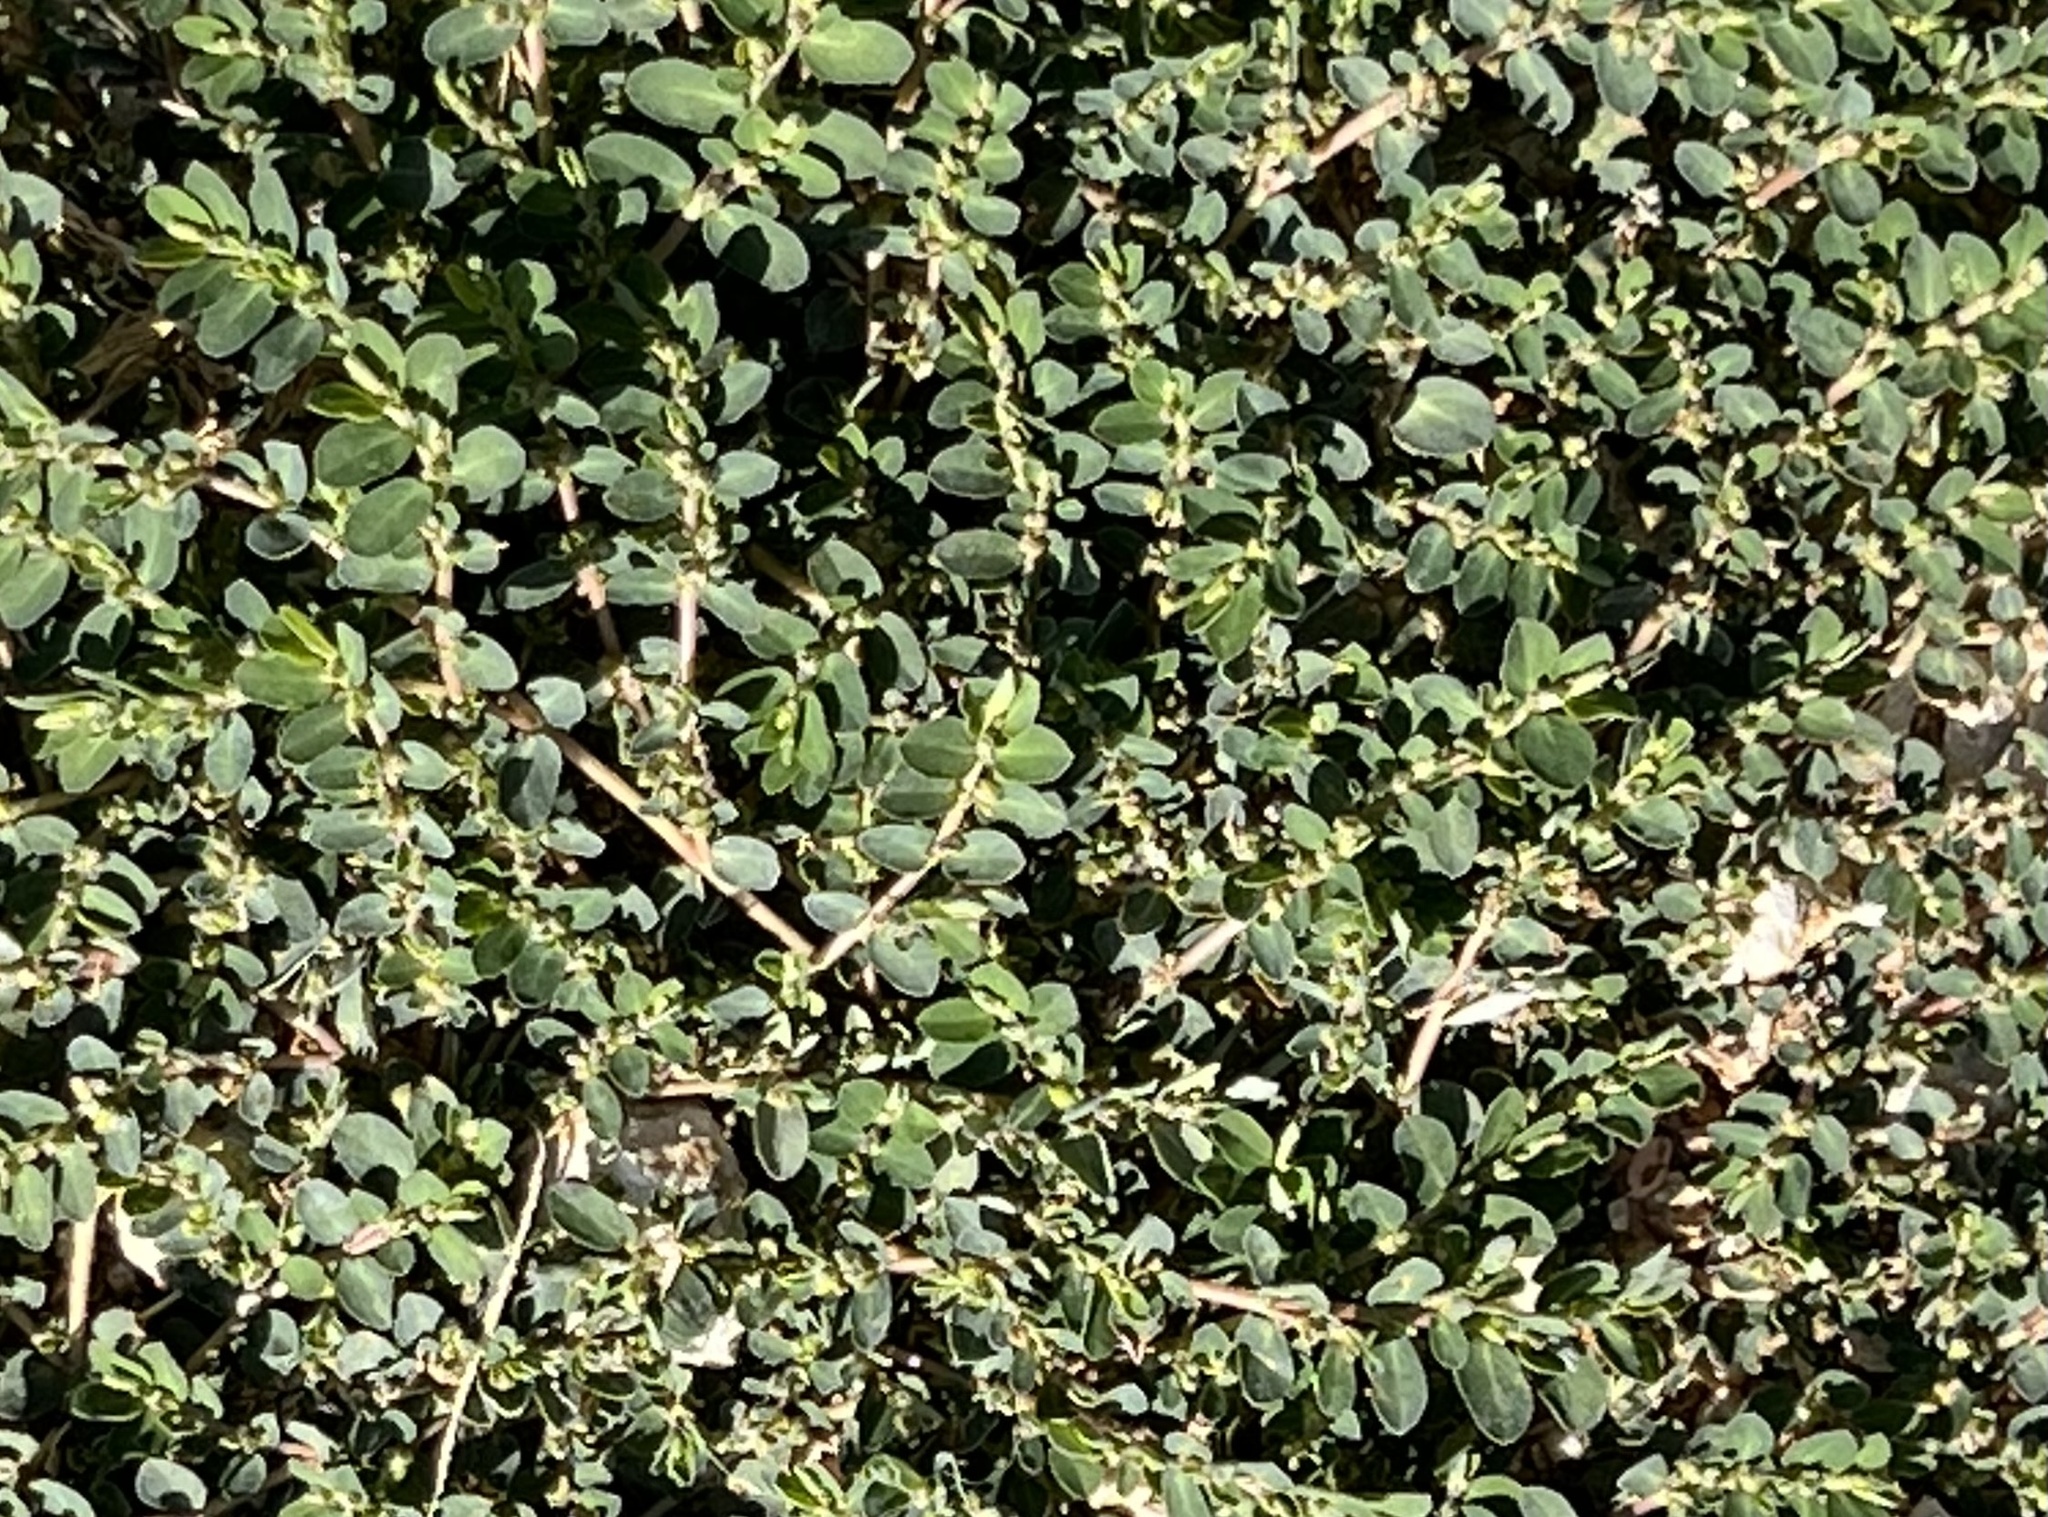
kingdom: Plantae
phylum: Tracheophyta
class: Magnoliopsida
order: Malpighiales
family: Euphorbiaceae
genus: Euphorbia
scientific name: Euphorbia prostrata
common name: Prostrate sandmat
